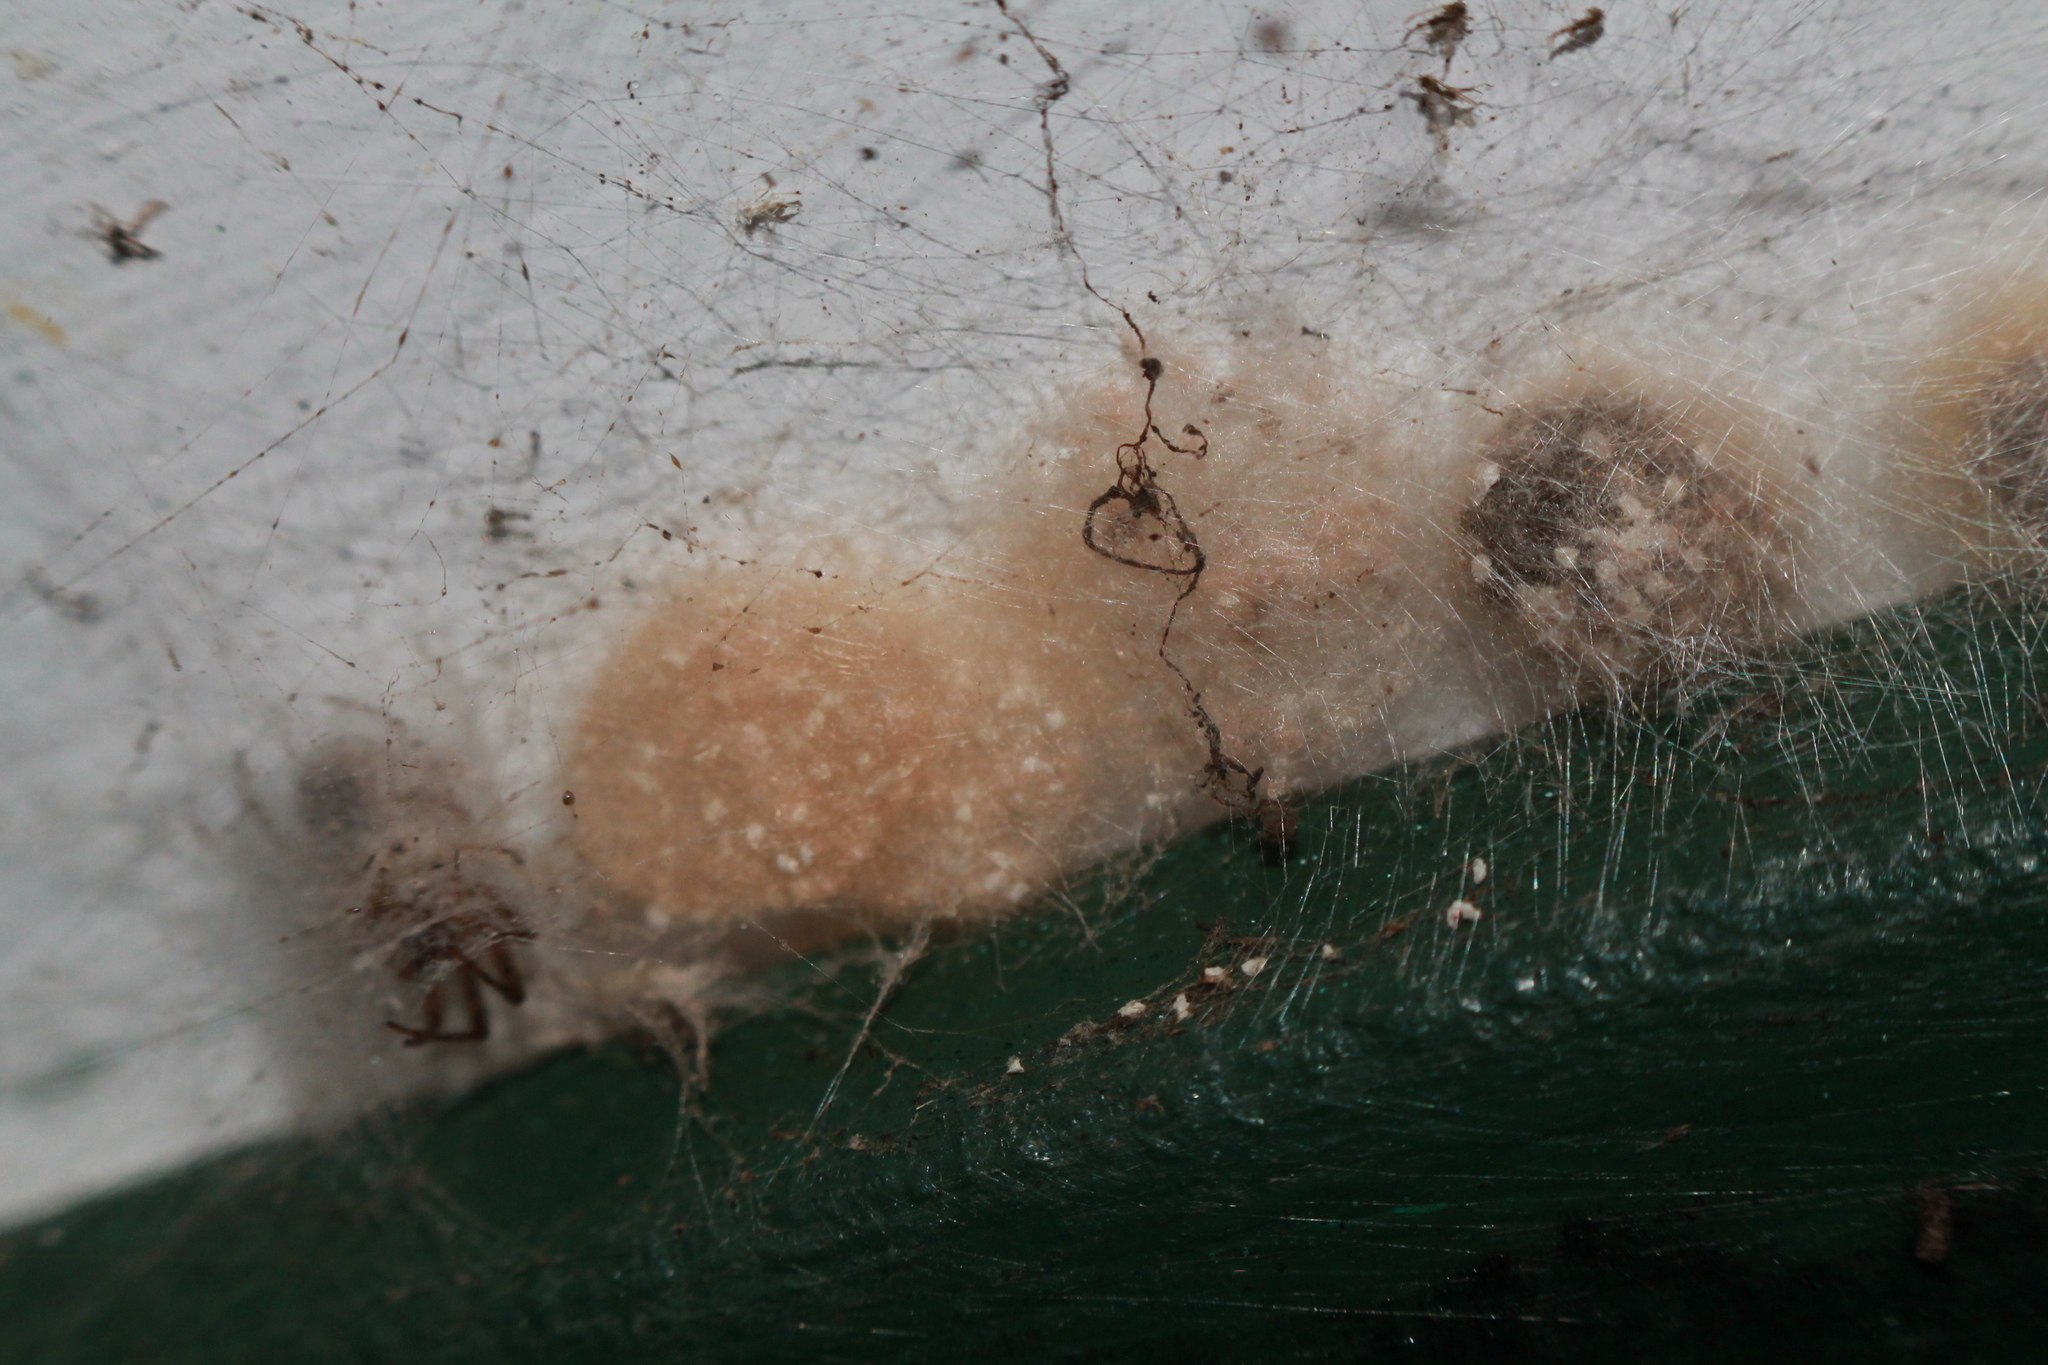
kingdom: Animalia
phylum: Arthropoda
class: Arachnida
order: Araneae
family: Araneidae
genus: Zygiella
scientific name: Zygiella x-notata
